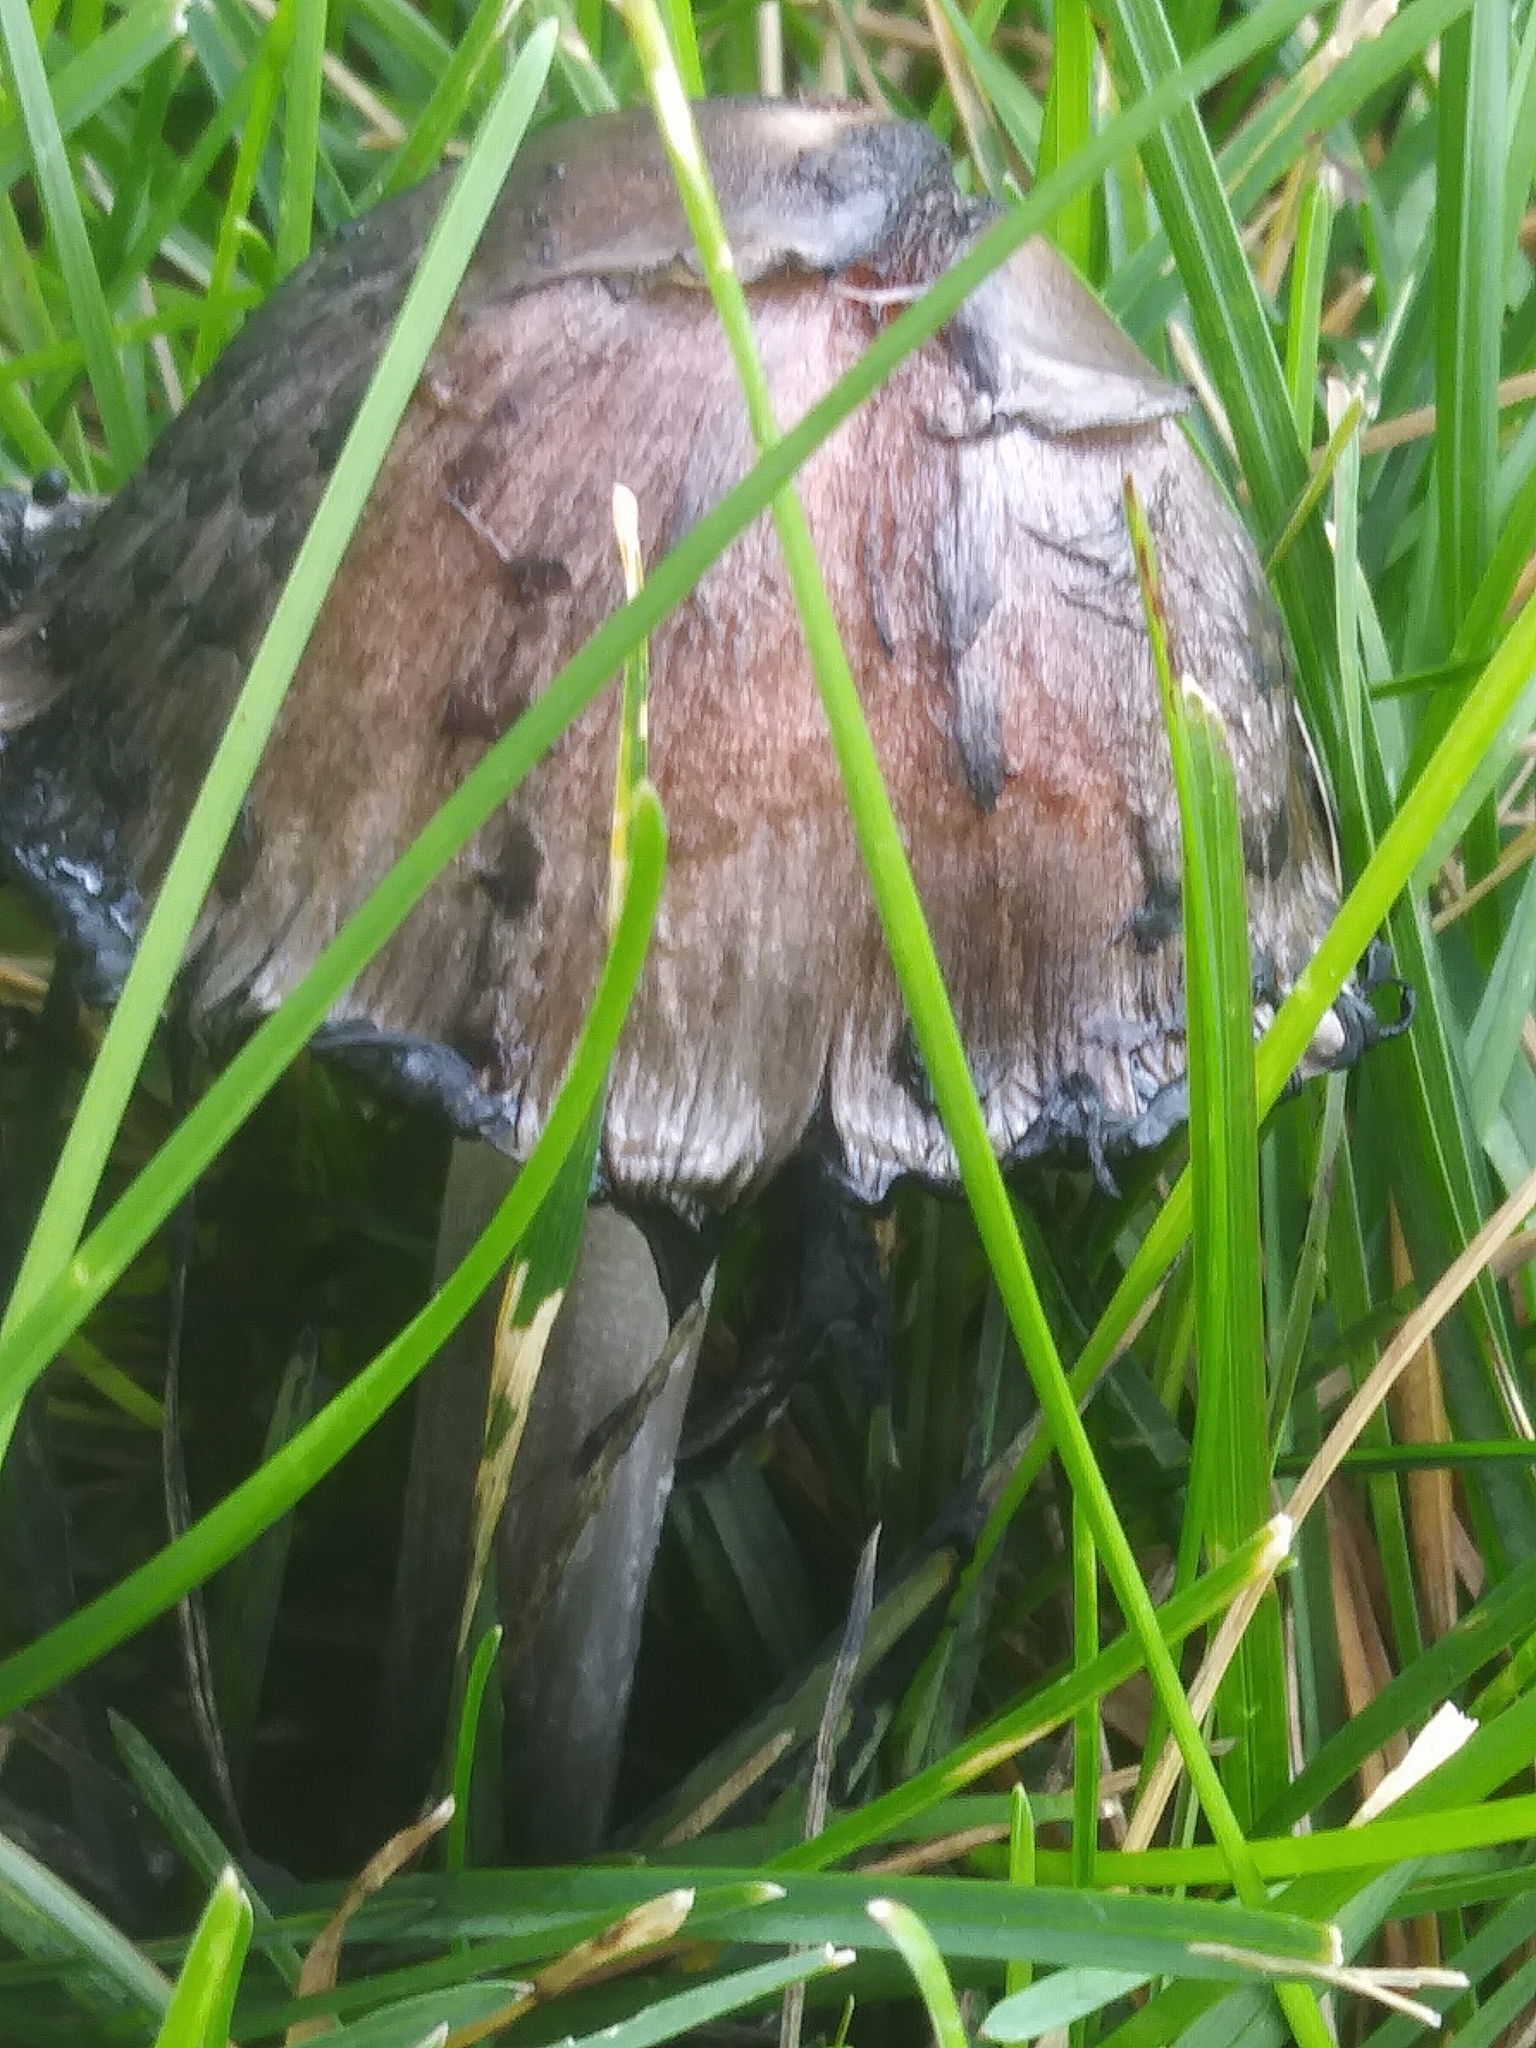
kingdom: Fungi
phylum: Basidiomycota
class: Agaricomycetes
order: Agaricales
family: Agaricaceae
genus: Coprinus
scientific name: Coprinus comatus
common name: Lawyer's wig
